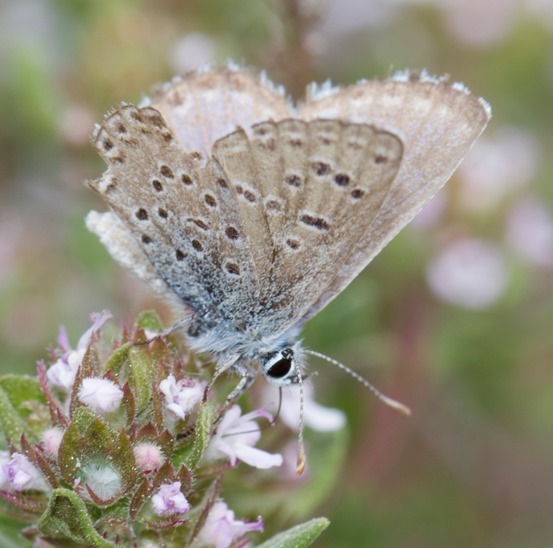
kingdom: Animalia
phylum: Arthropoda
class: Insecta
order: Lepidoptera
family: Lycaenidae
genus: Pseudophilotes
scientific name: Pseudophilotes baton
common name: Baton blue
